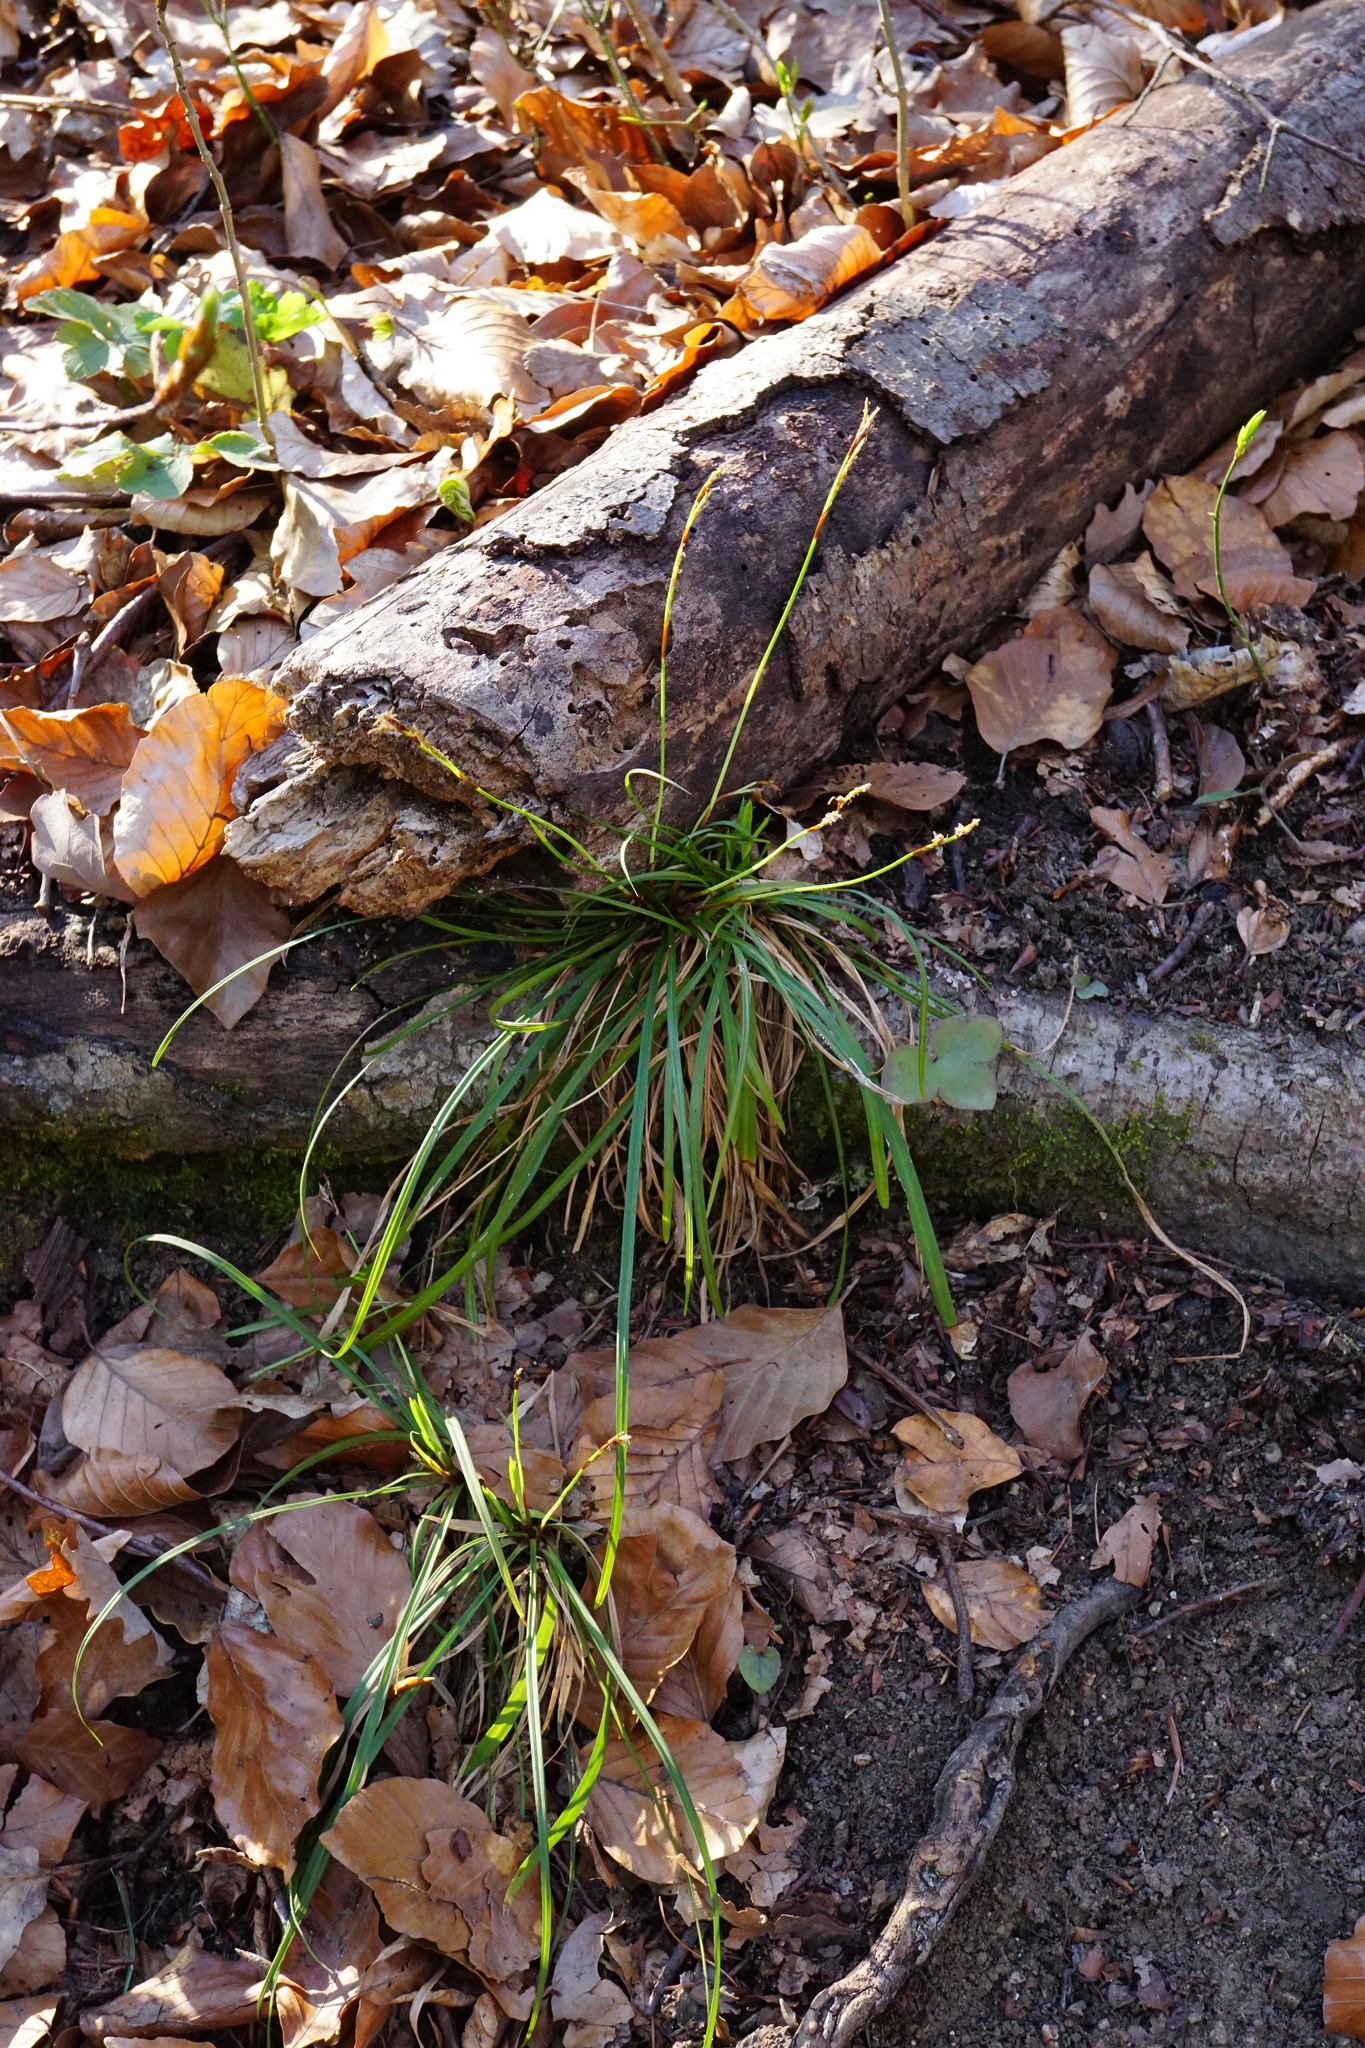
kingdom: Plantae
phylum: Tracheophyta
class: Liliopsida
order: Poales
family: Cyperaceae
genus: Carex
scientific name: Carex digitata
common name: Fingered sedge
